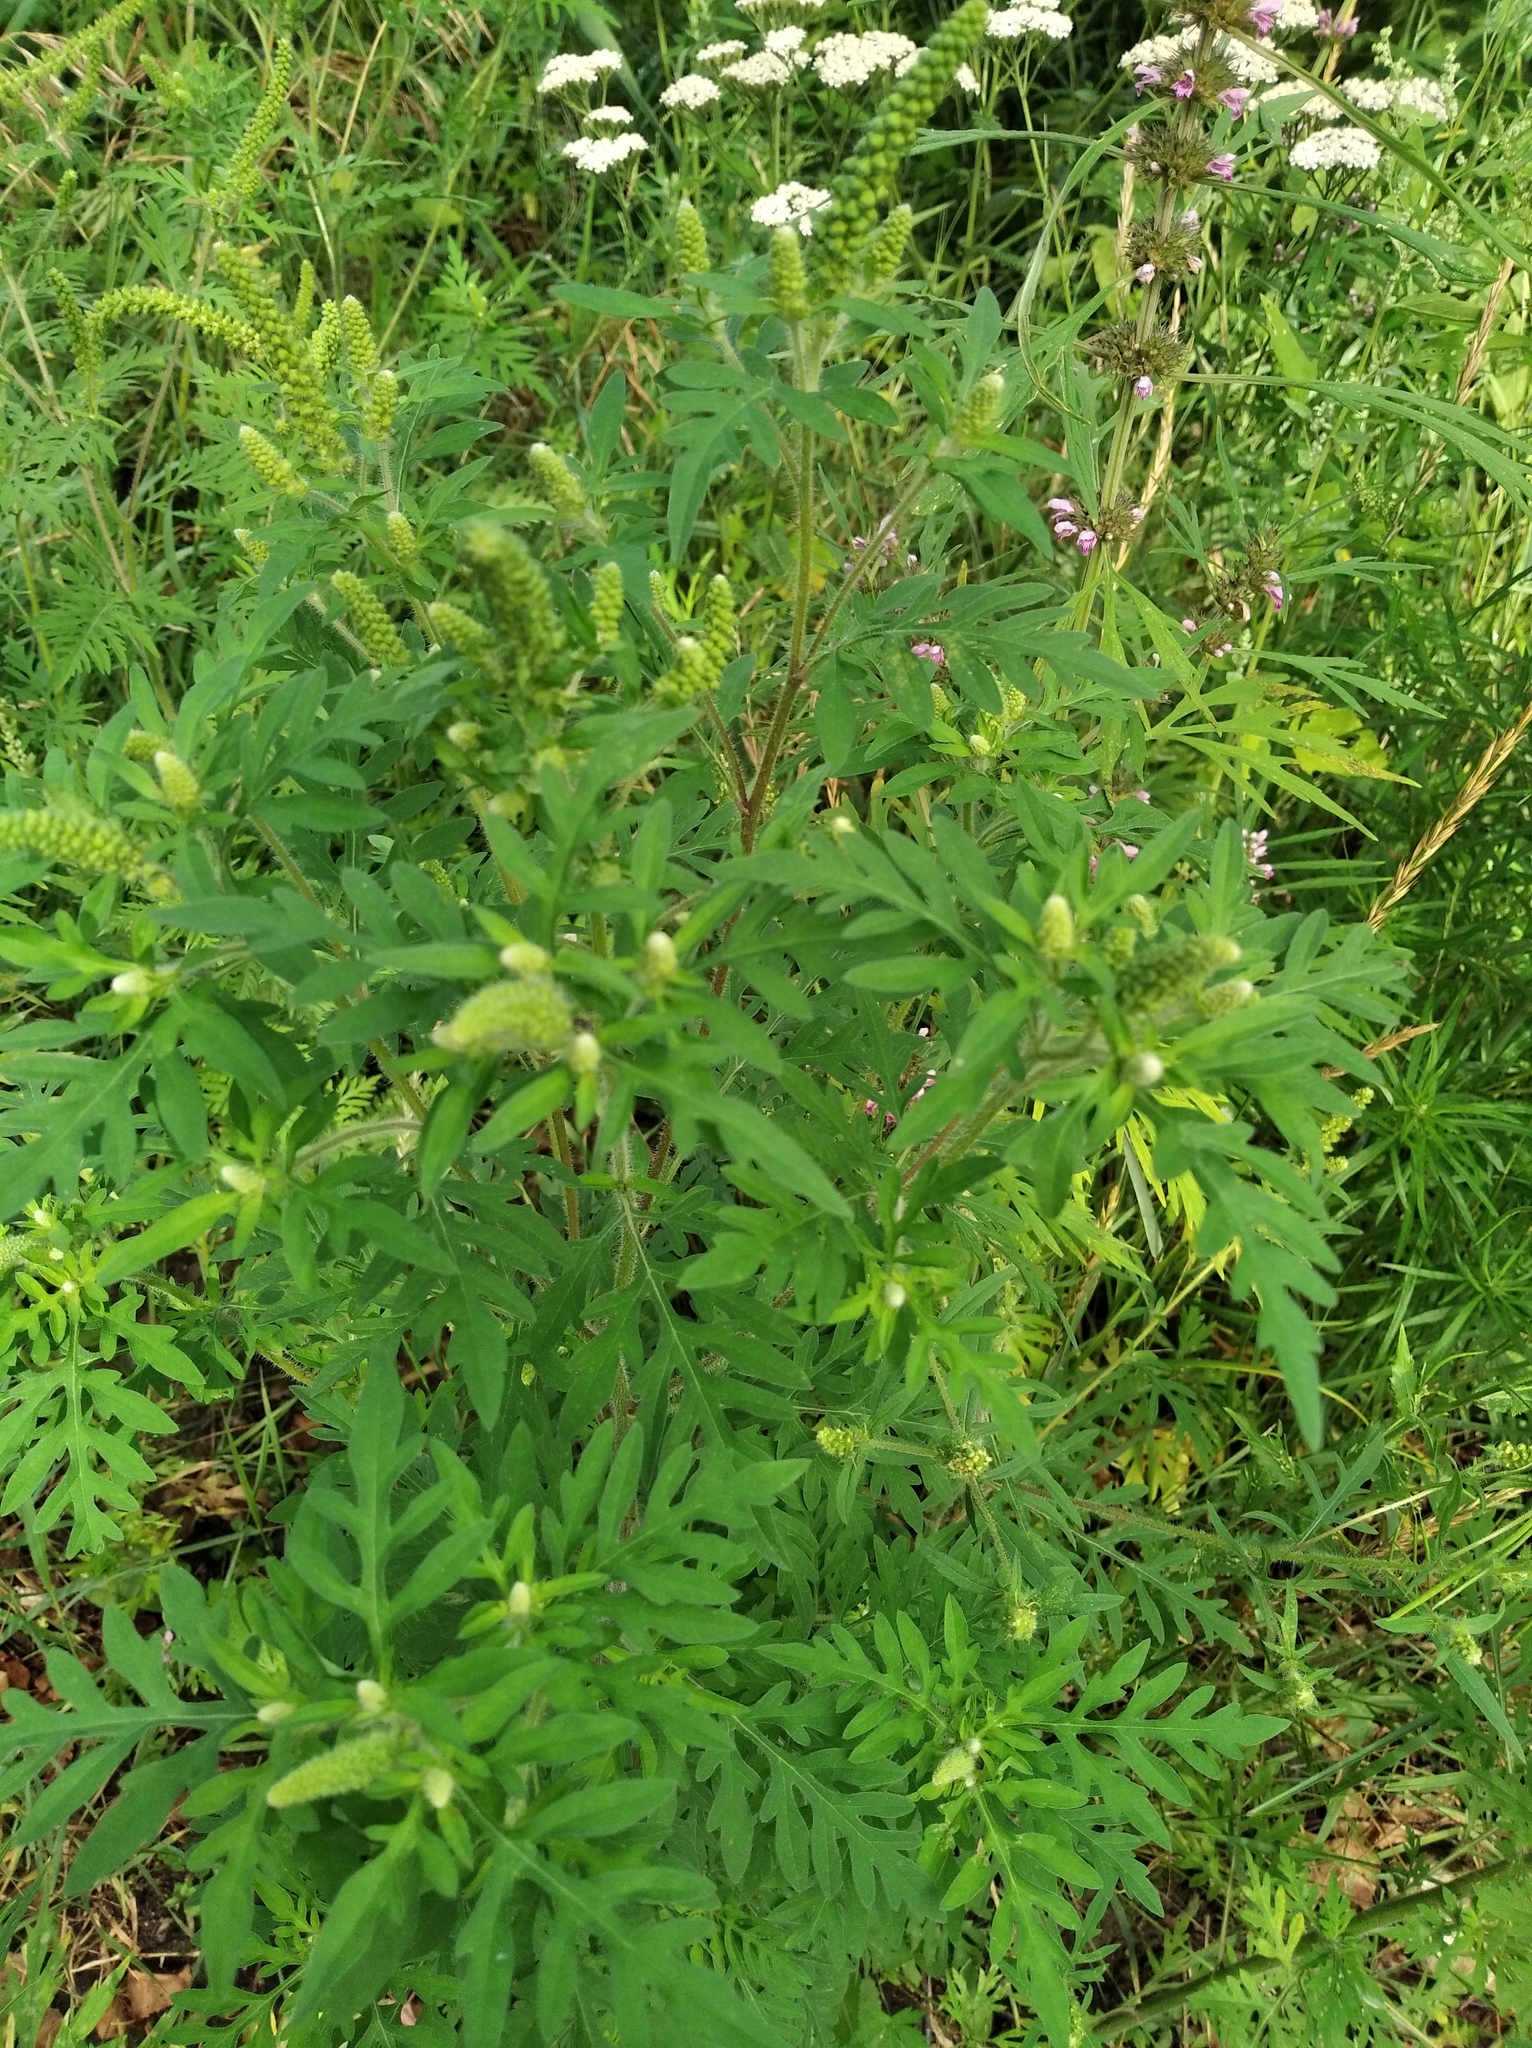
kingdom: Plantae
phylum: Tracheophyta
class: Magnoliopsida
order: Asterales
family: Asteraceae
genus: Ambrosia
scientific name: Ambrosia artemisiifolia
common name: Annual ragweed
